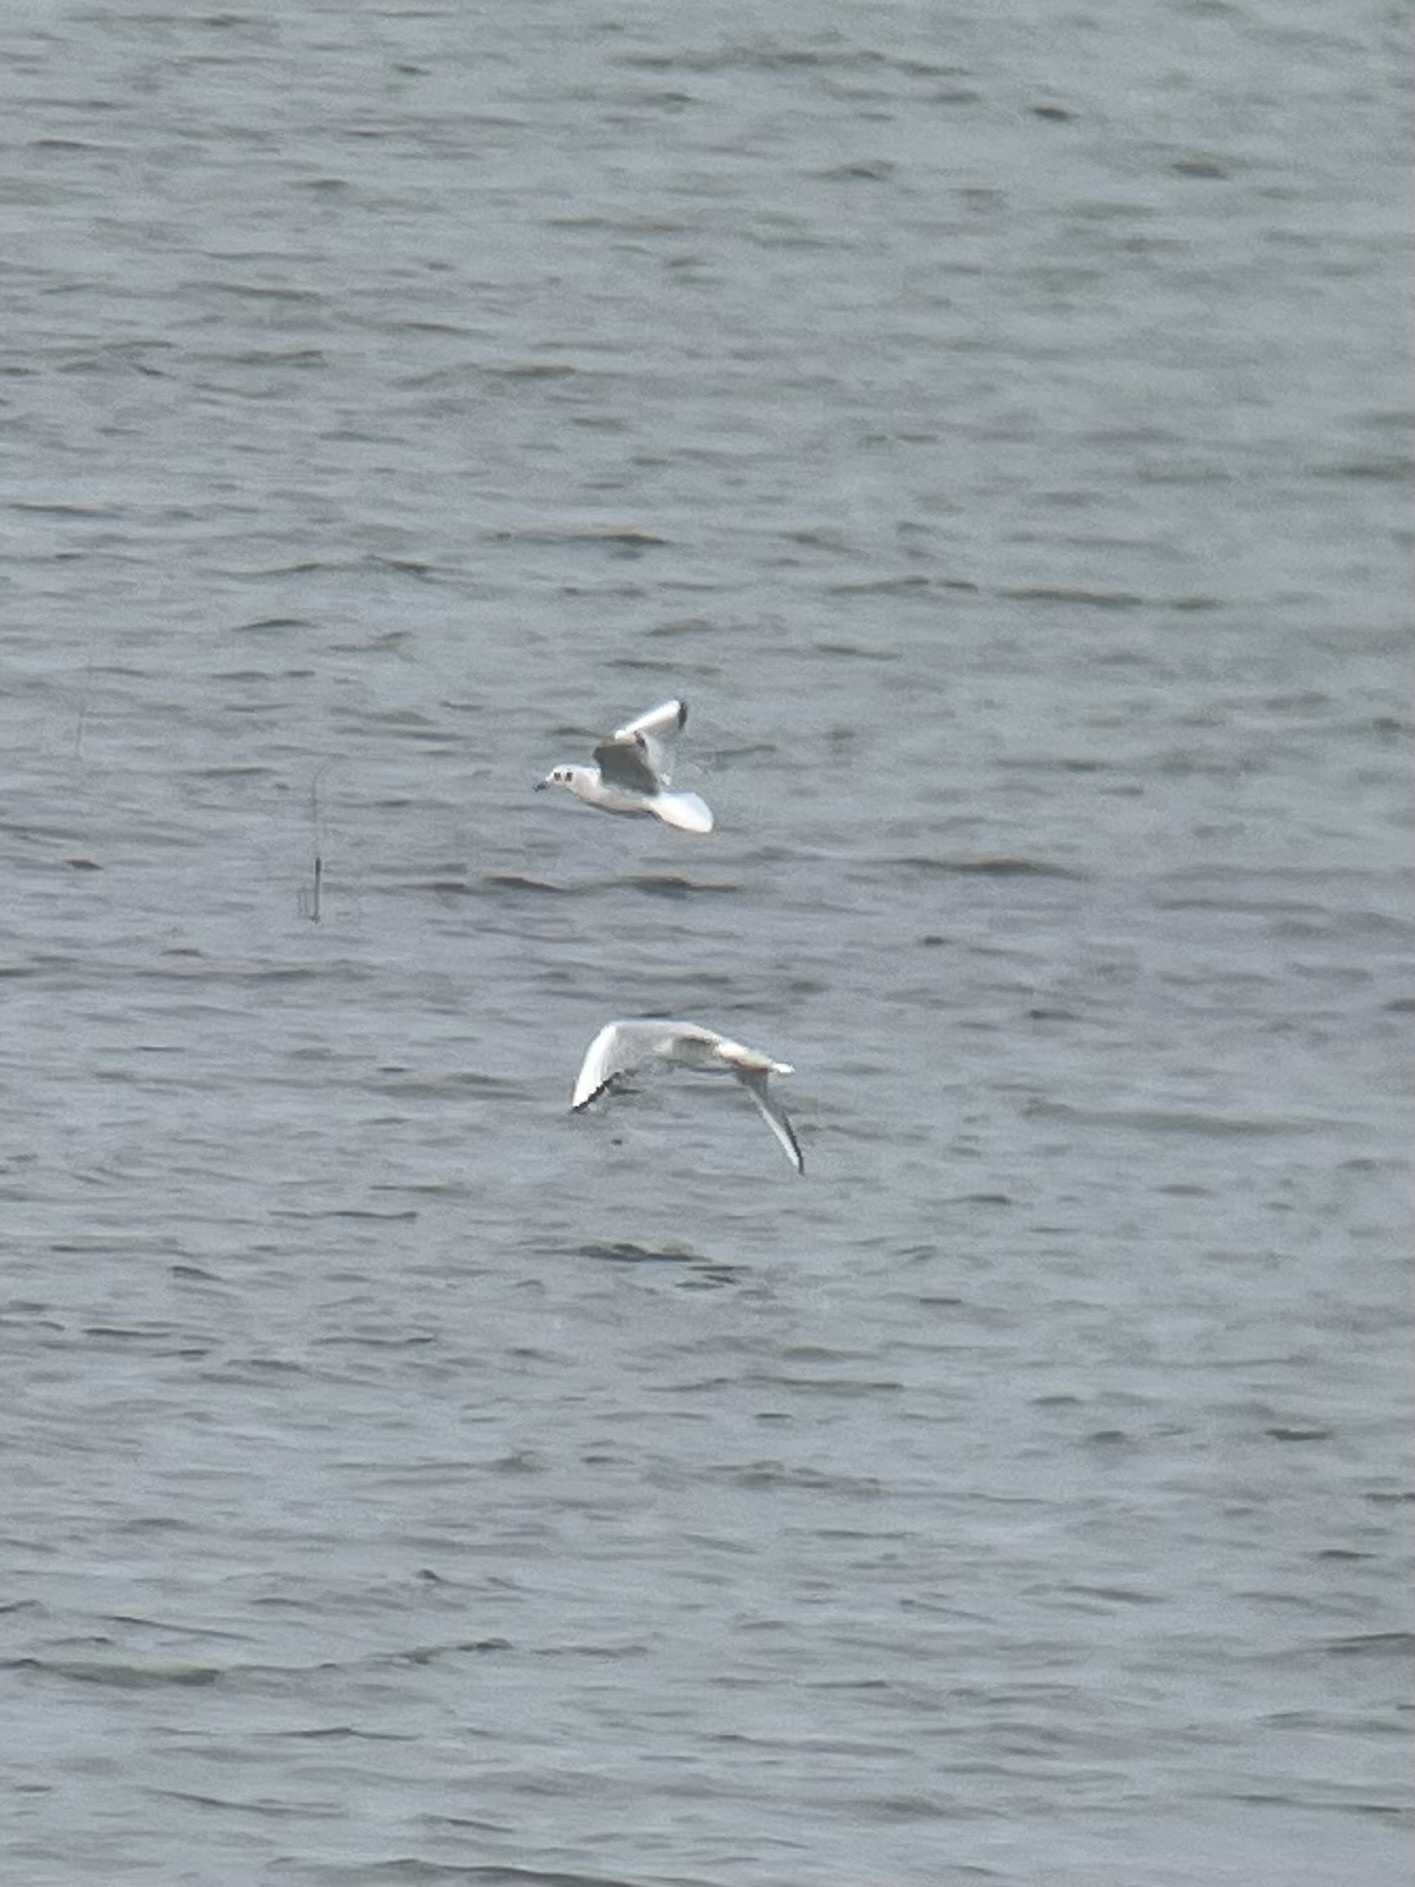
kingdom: Animalia
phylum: Chordata
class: Aves
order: Charadriiformes
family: Laridae
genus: Chroicocephalus
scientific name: Chroicocephalus philadelphia
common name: Bonaparte's gull
